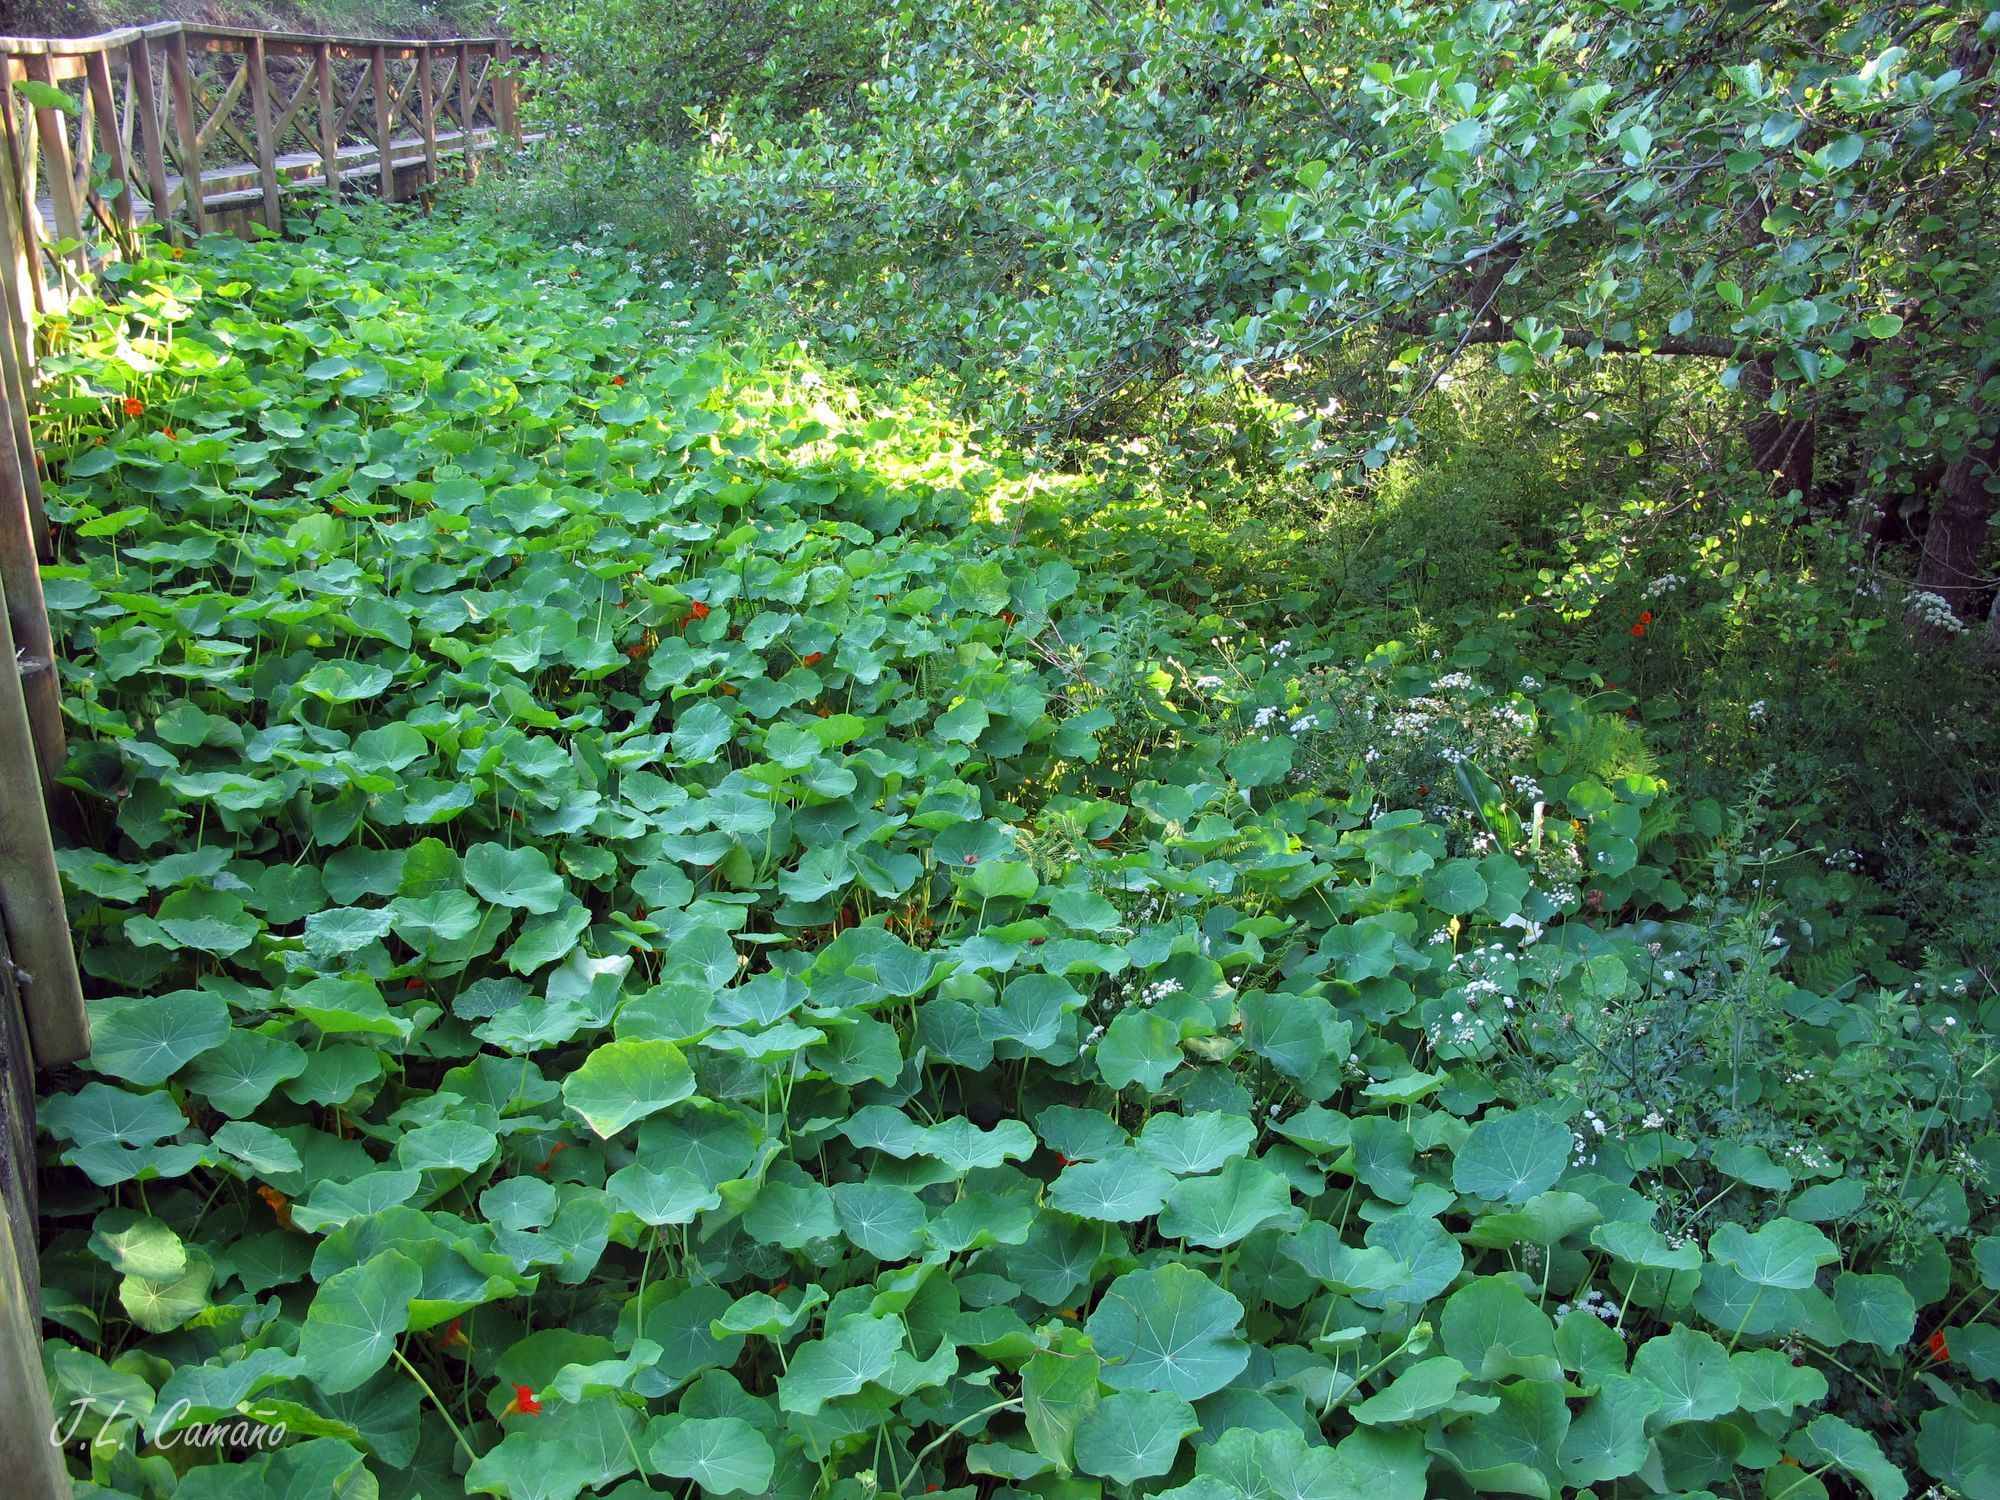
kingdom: Plantae
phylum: Tracheophyta
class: Magnoliopsida
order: Brassicales
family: Tropaeolaceae
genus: Tropaeolum
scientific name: Tropaeolum majus
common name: Nasturtium
